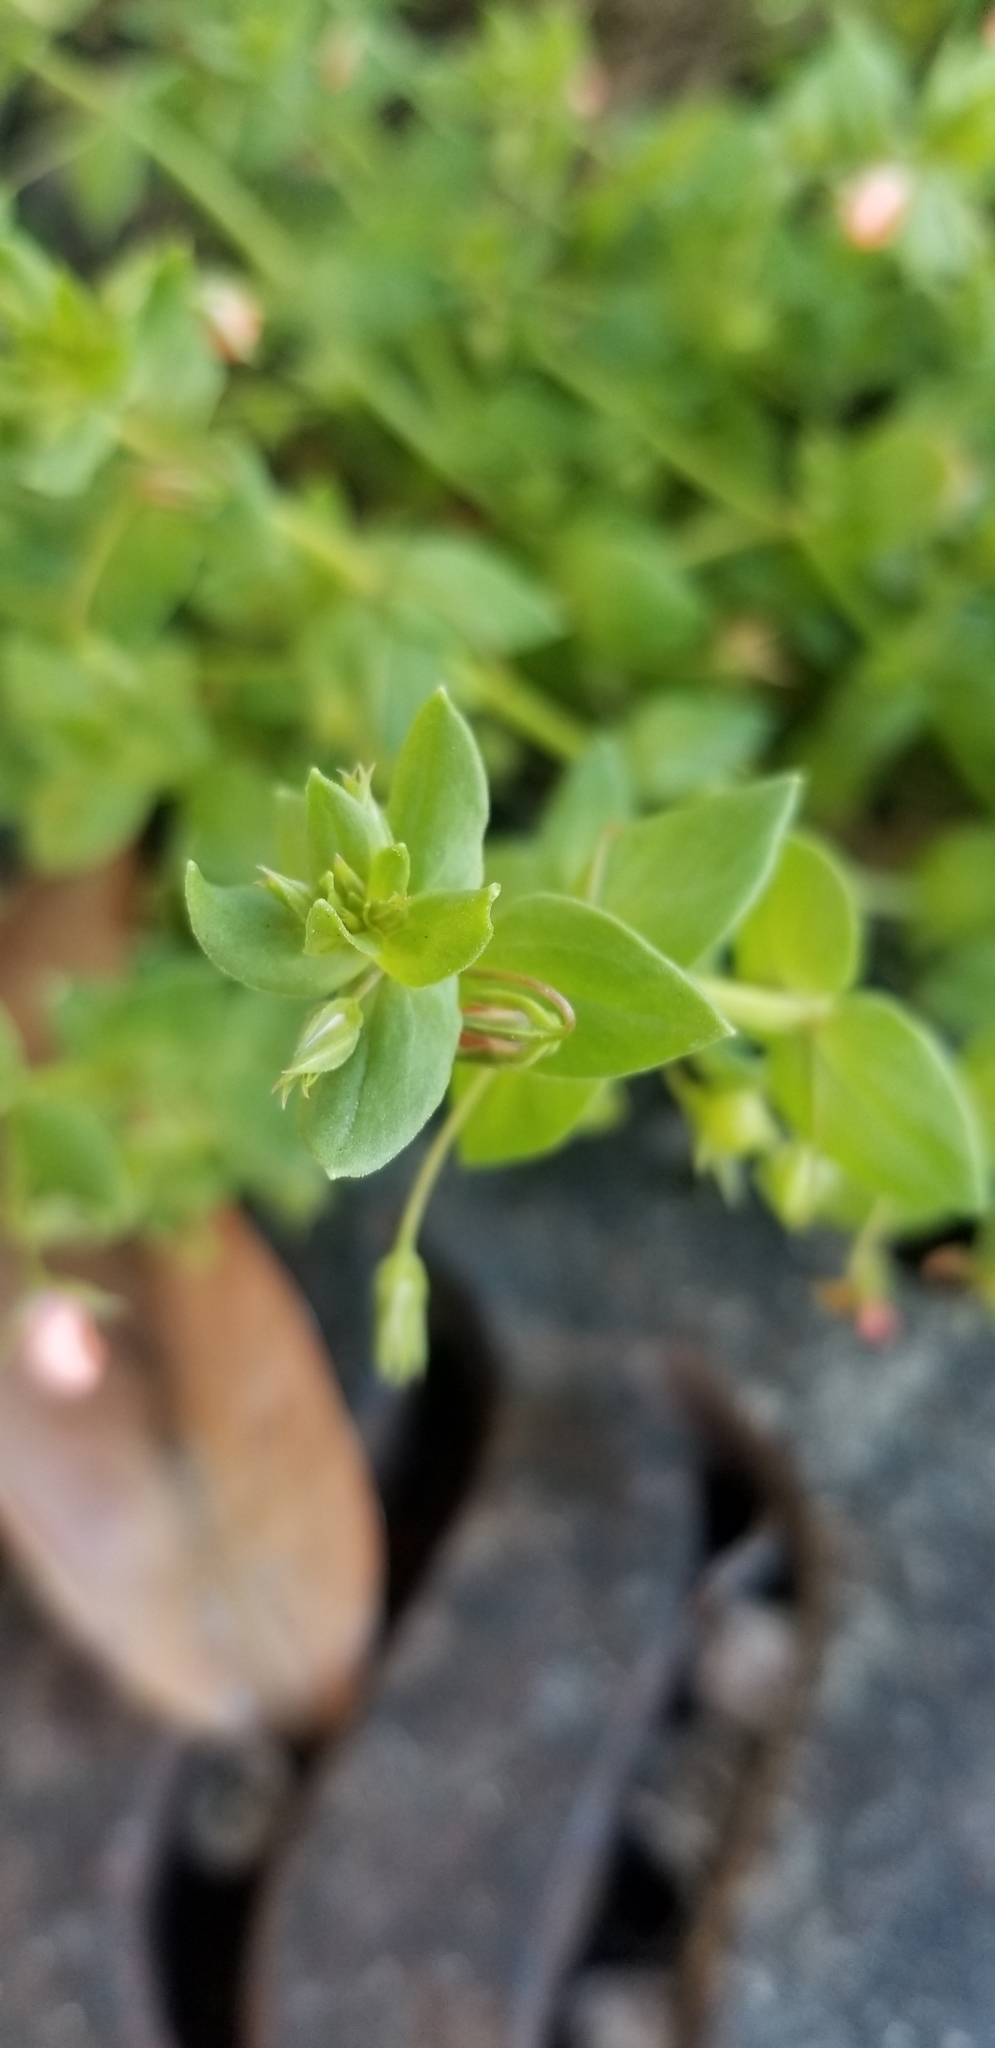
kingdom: Plantae
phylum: Tracheophyta
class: Magnoliopsida
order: Ericales
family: Primulaceae
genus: Lysimachia
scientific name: Lysimachia arvensis
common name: Scarlet pimpernel
